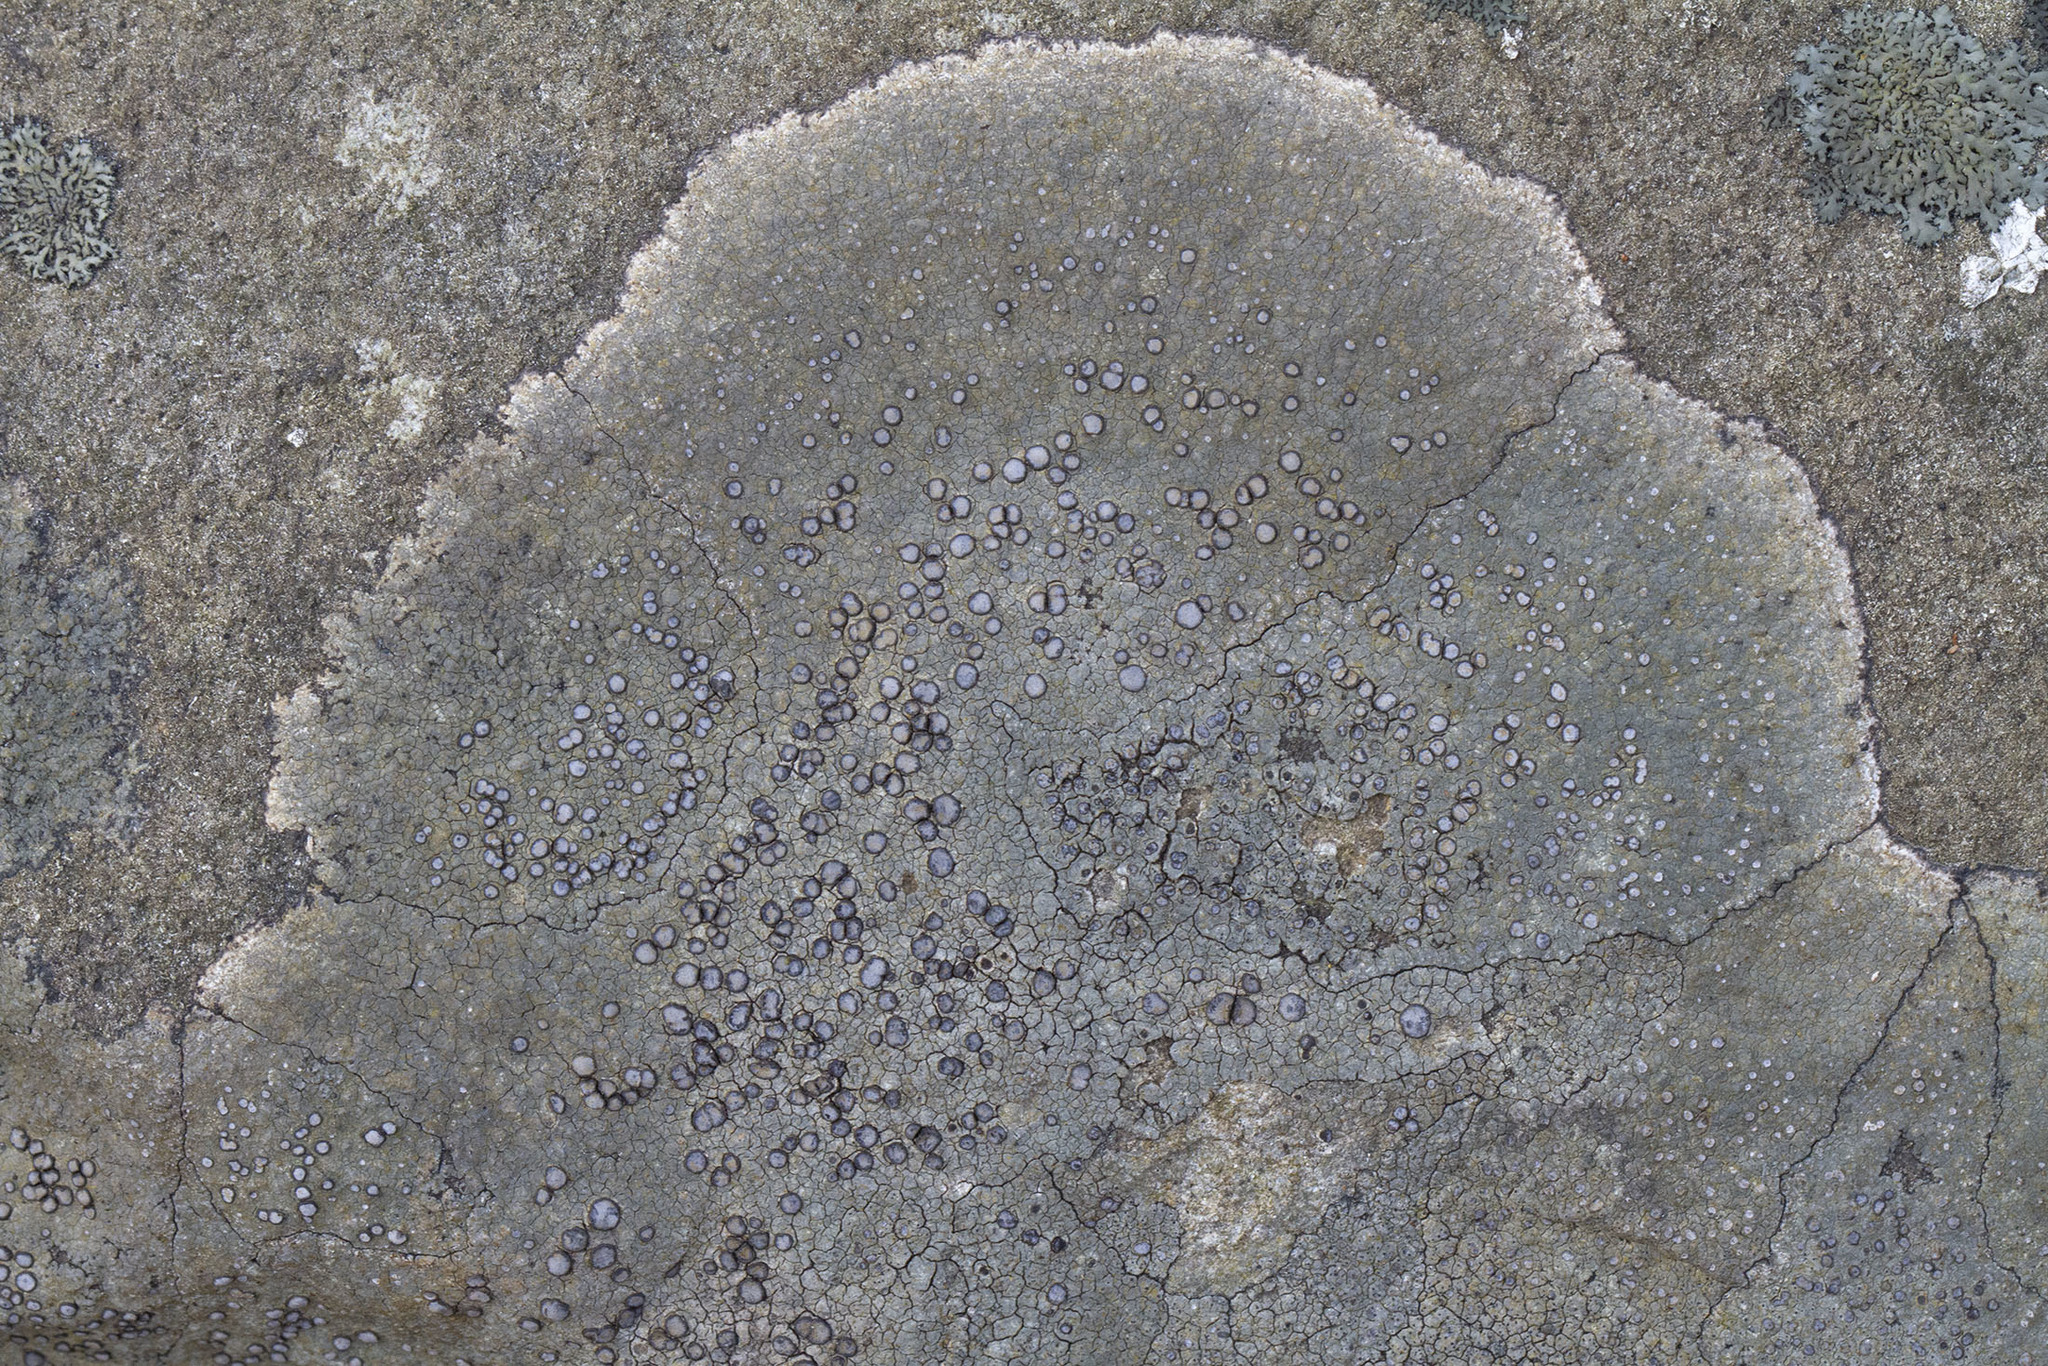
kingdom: Fungi
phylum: Ascomycota
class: Lecanoromycetes
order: Lecideales
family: Lecideaceae
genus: Porpidia
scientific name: Porpidia albocaerulescens
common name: Smokey-eyed boulder lichen
